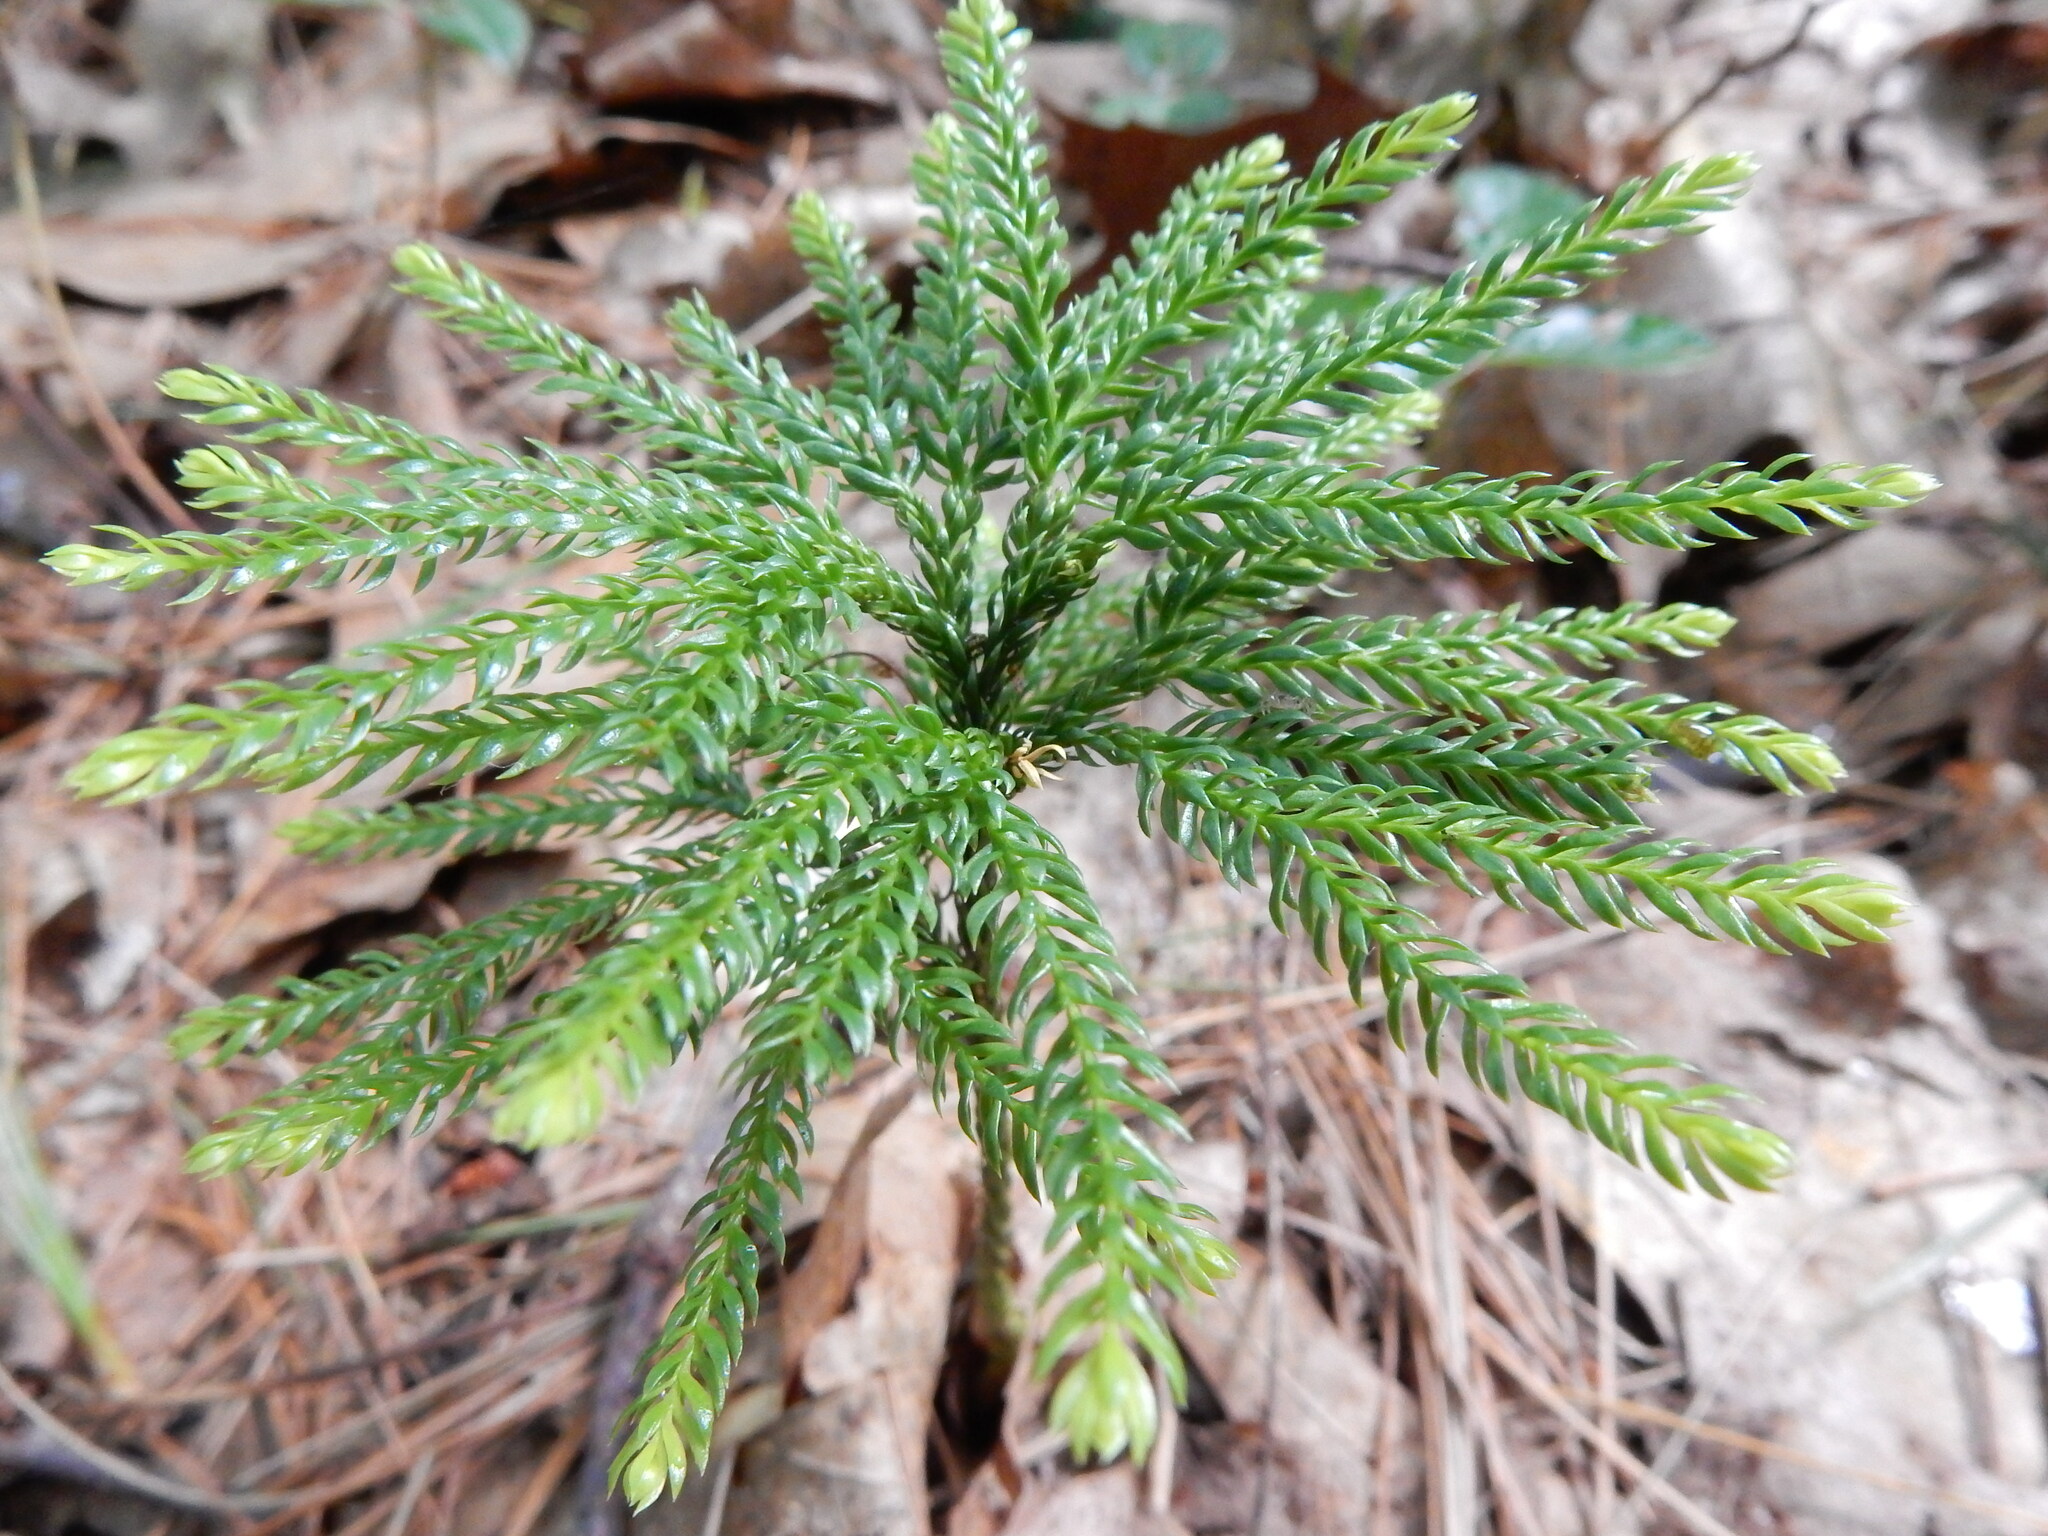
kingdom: Plantae
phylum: Tracheophyta
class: Lycopodiopsida
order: Lycopodiales
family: Lycopodiaceae
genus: Dendrolycopodium
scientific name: Dendrolycopodium obscurum
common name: Common ground-pine
